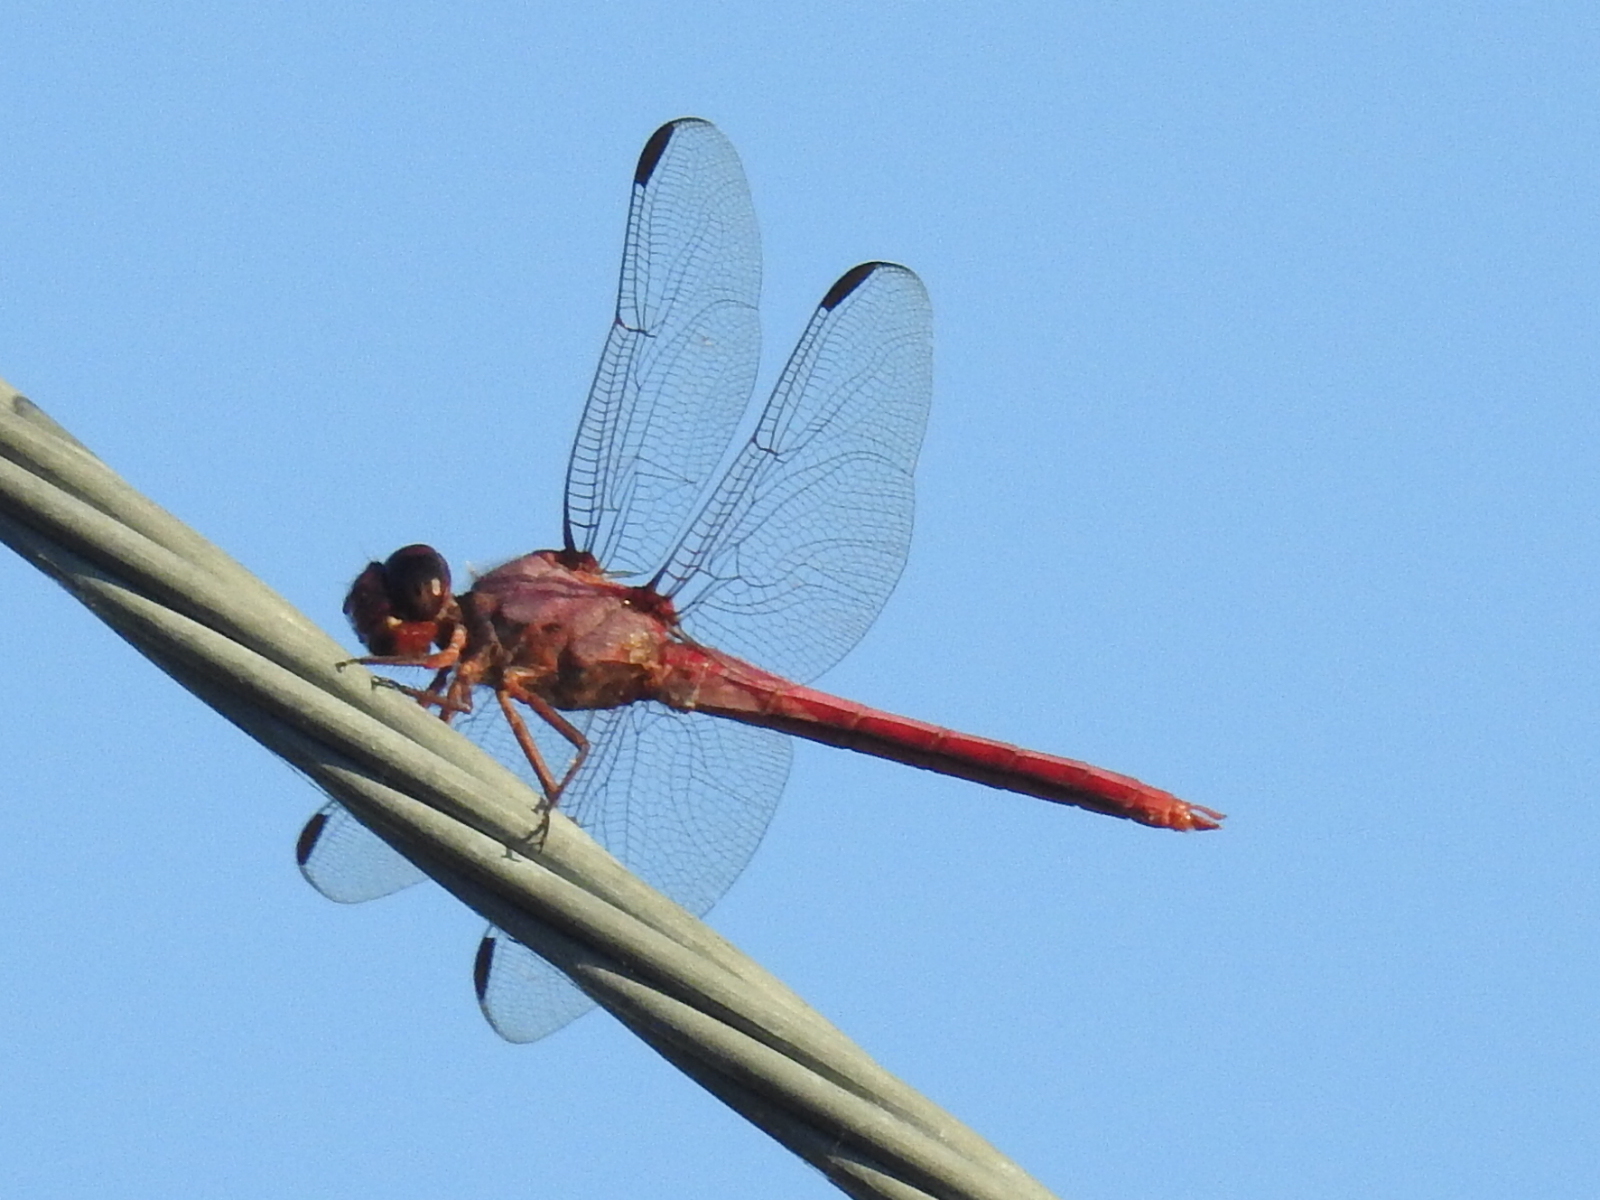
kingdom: Animalia
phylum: Arthropoda
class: Insecta
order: Odonata
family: Libellulidae
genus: Orthemis
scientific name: Orthemis ferruginea
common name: Roseate skimmer
